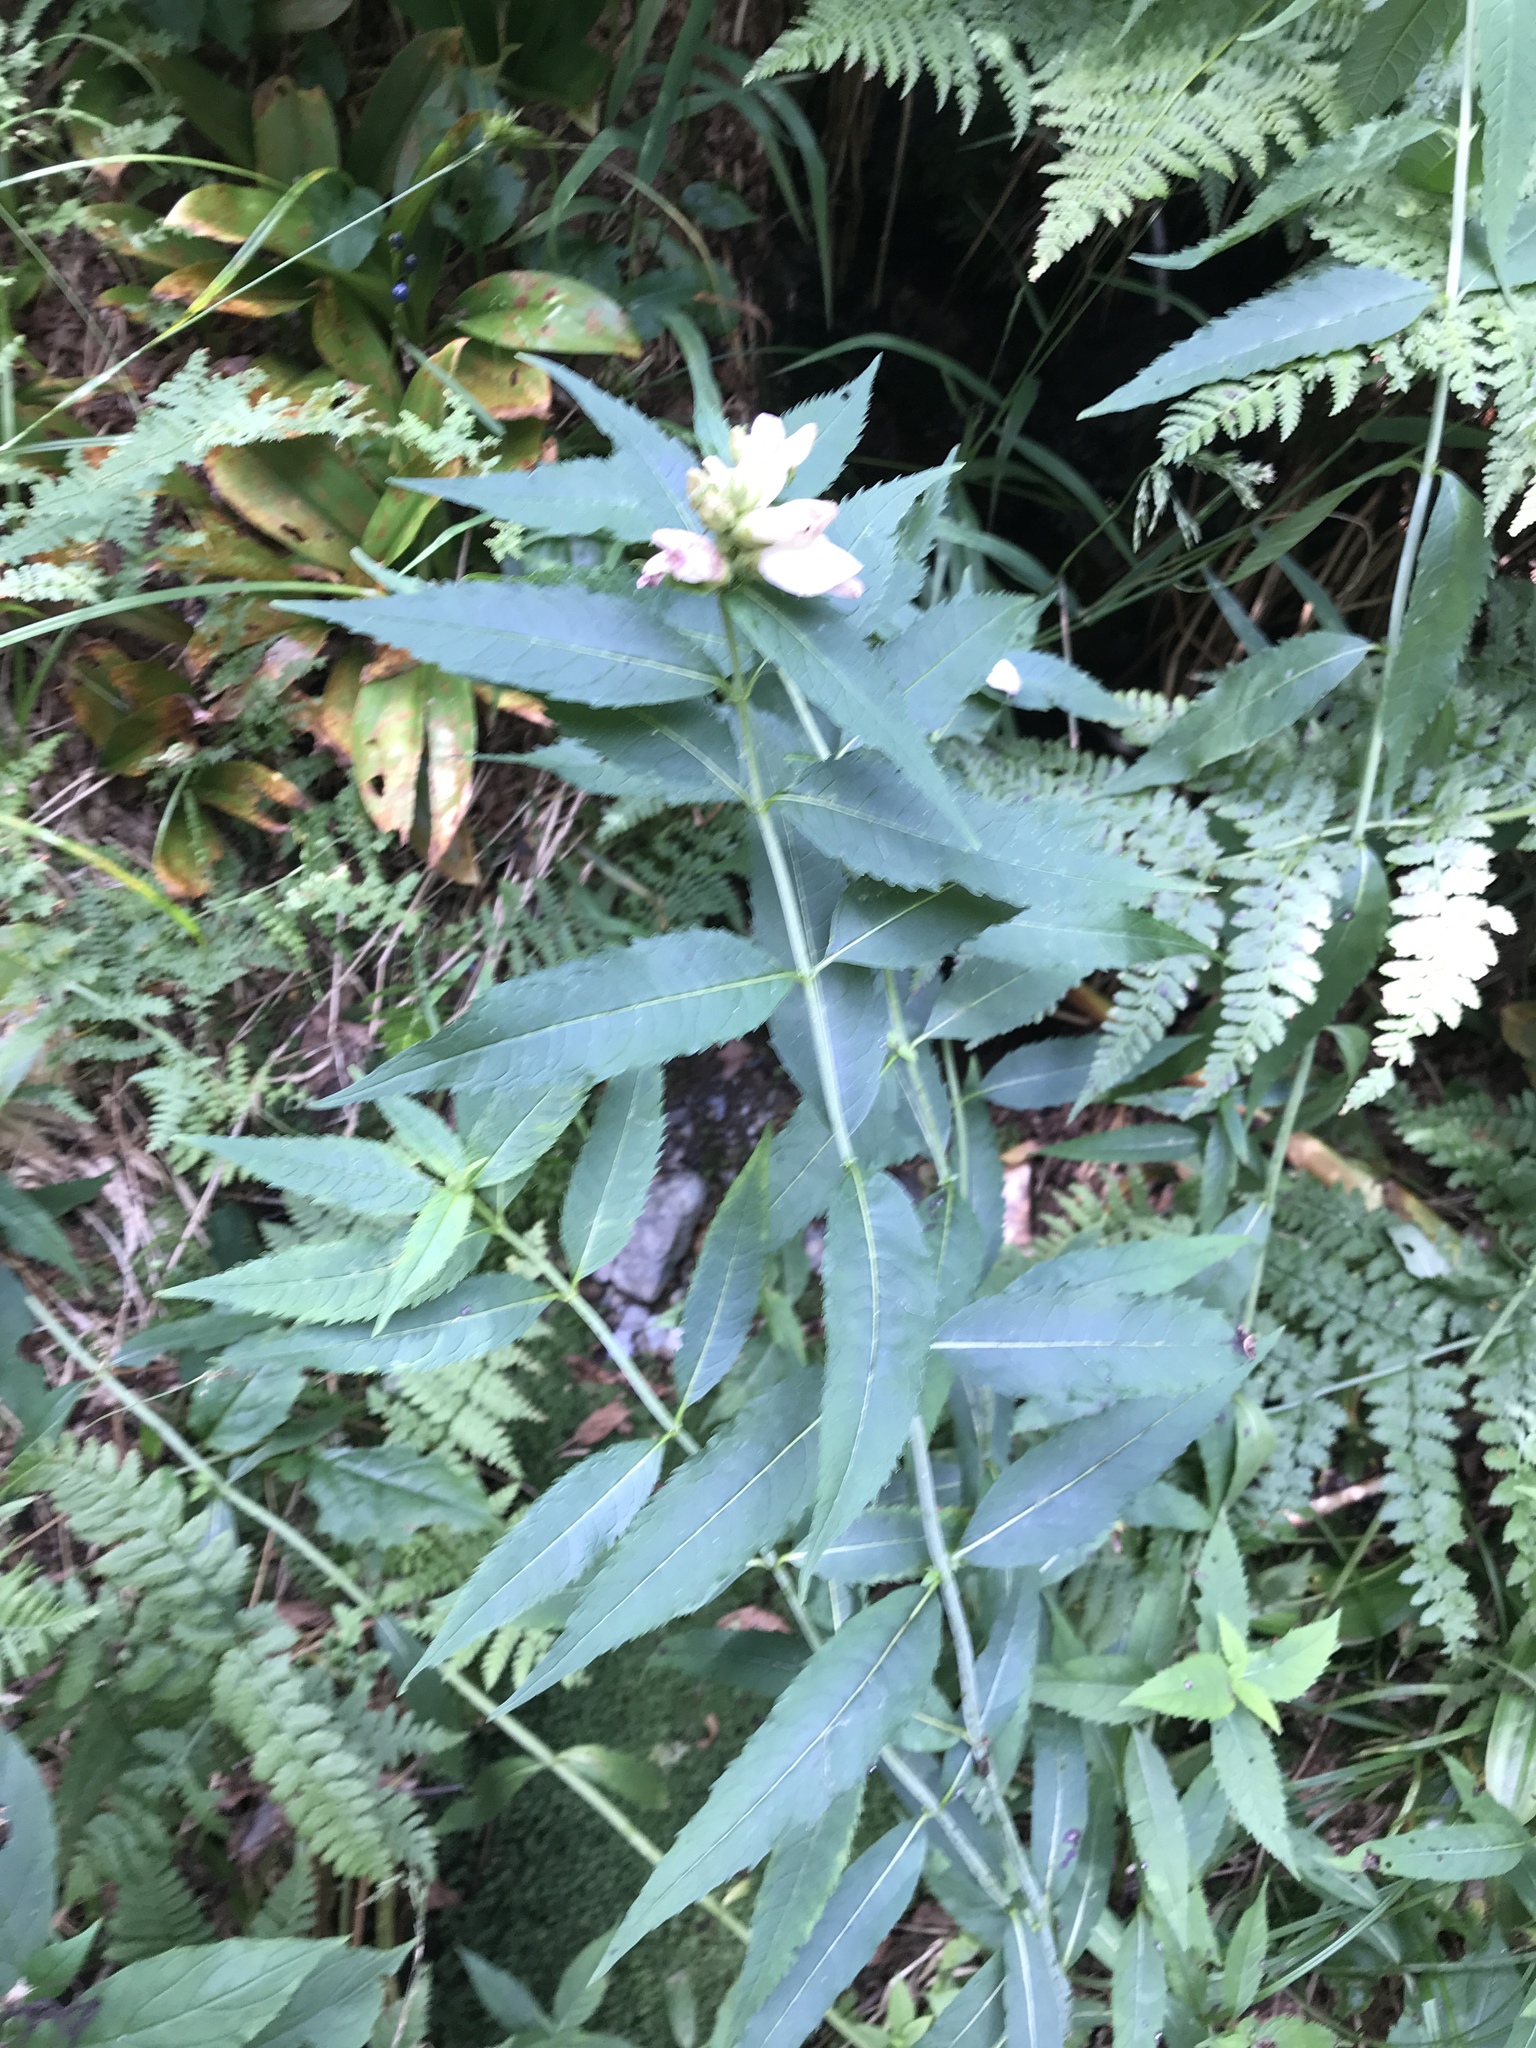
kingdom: Plantae
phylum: Tracheophyta
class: Magnoliopsida
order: Lamiales
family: Plantaginaceae
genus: Chelone
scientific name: Chelone glabra
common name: Snakehead
